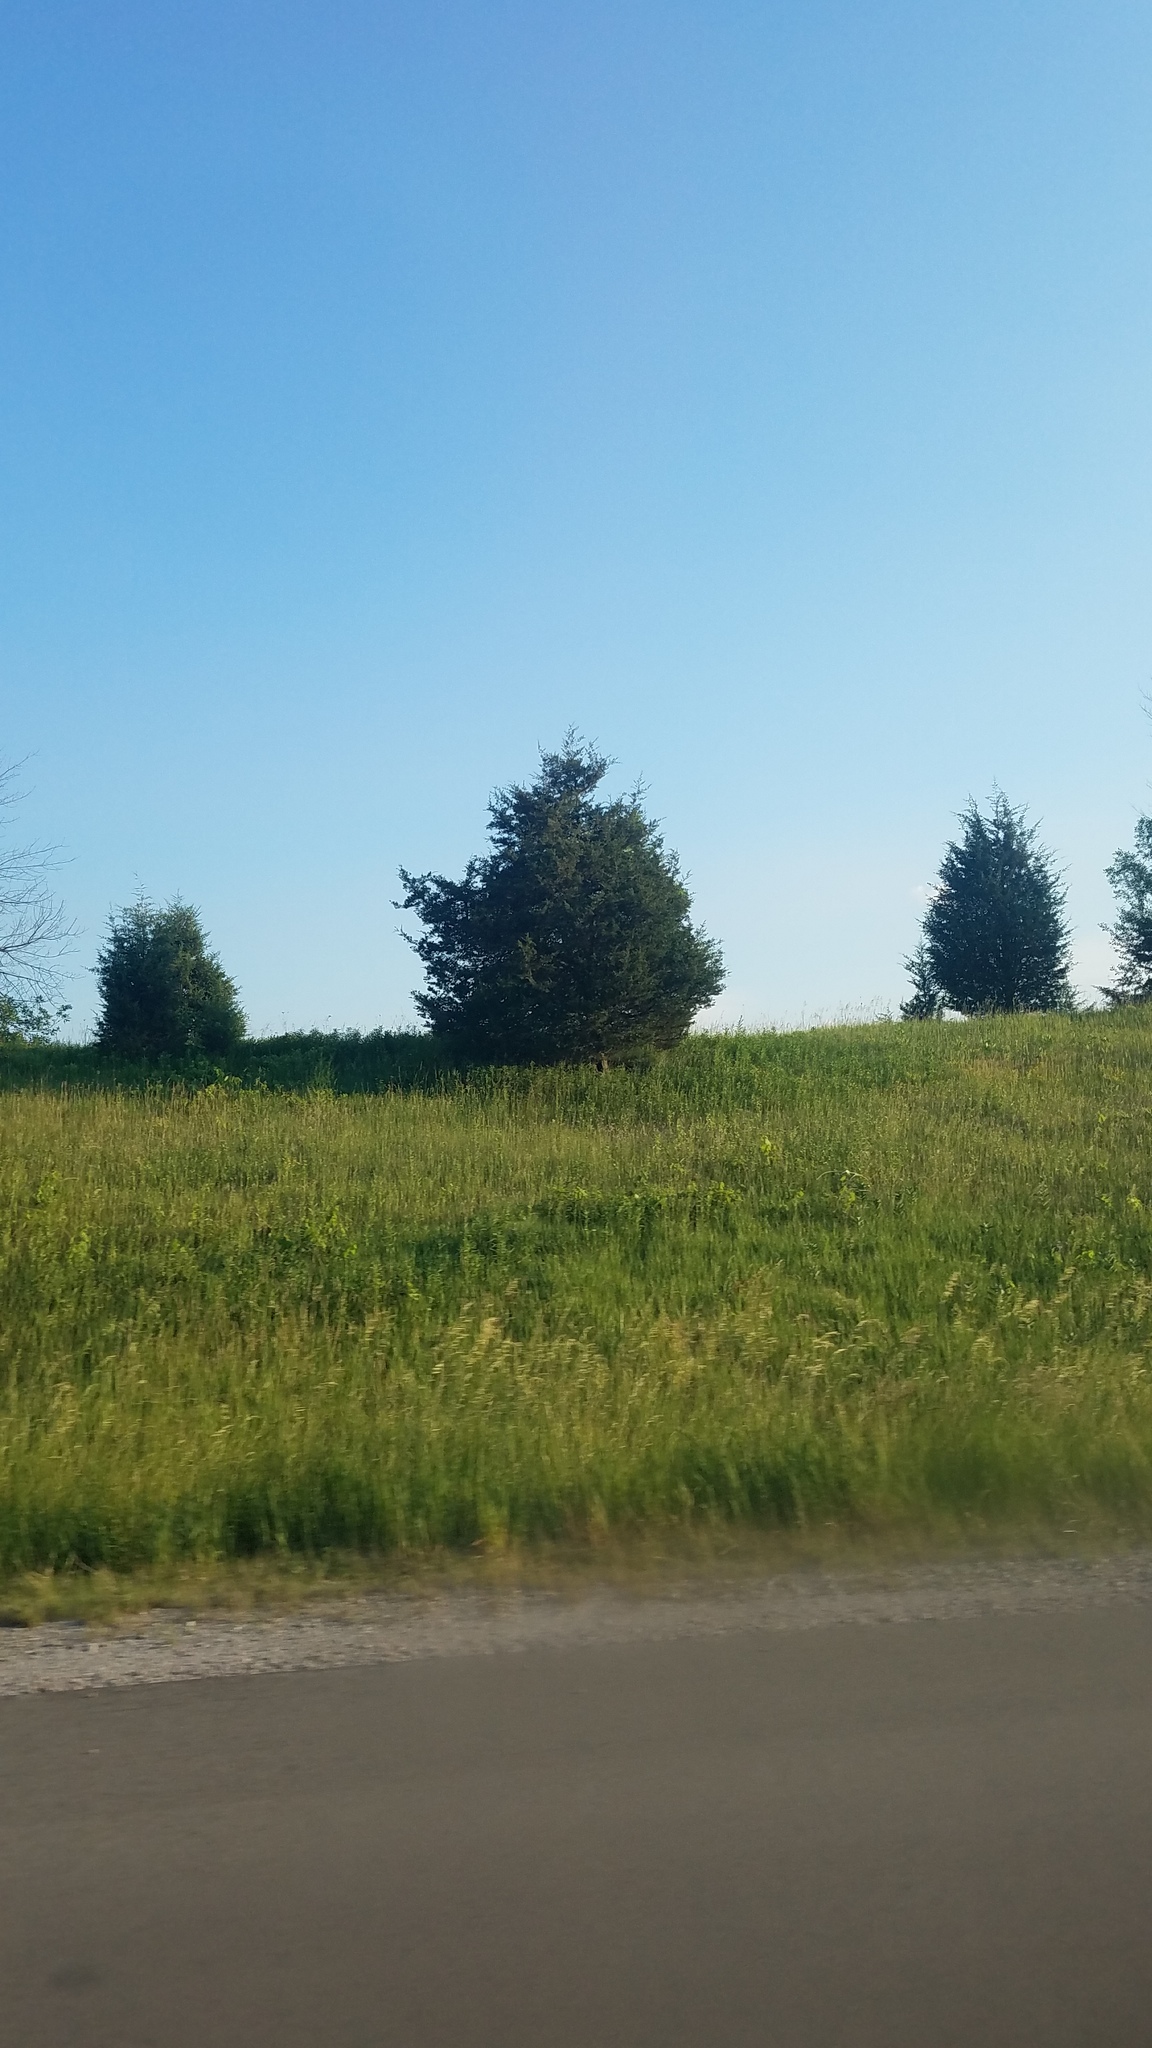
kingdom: Plantae
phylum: Tracheophyta
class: Pinopsida
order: Pinales
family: Cupressaceae
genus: Juniperus
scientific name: Juniperus virginiana
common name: Red juniper
